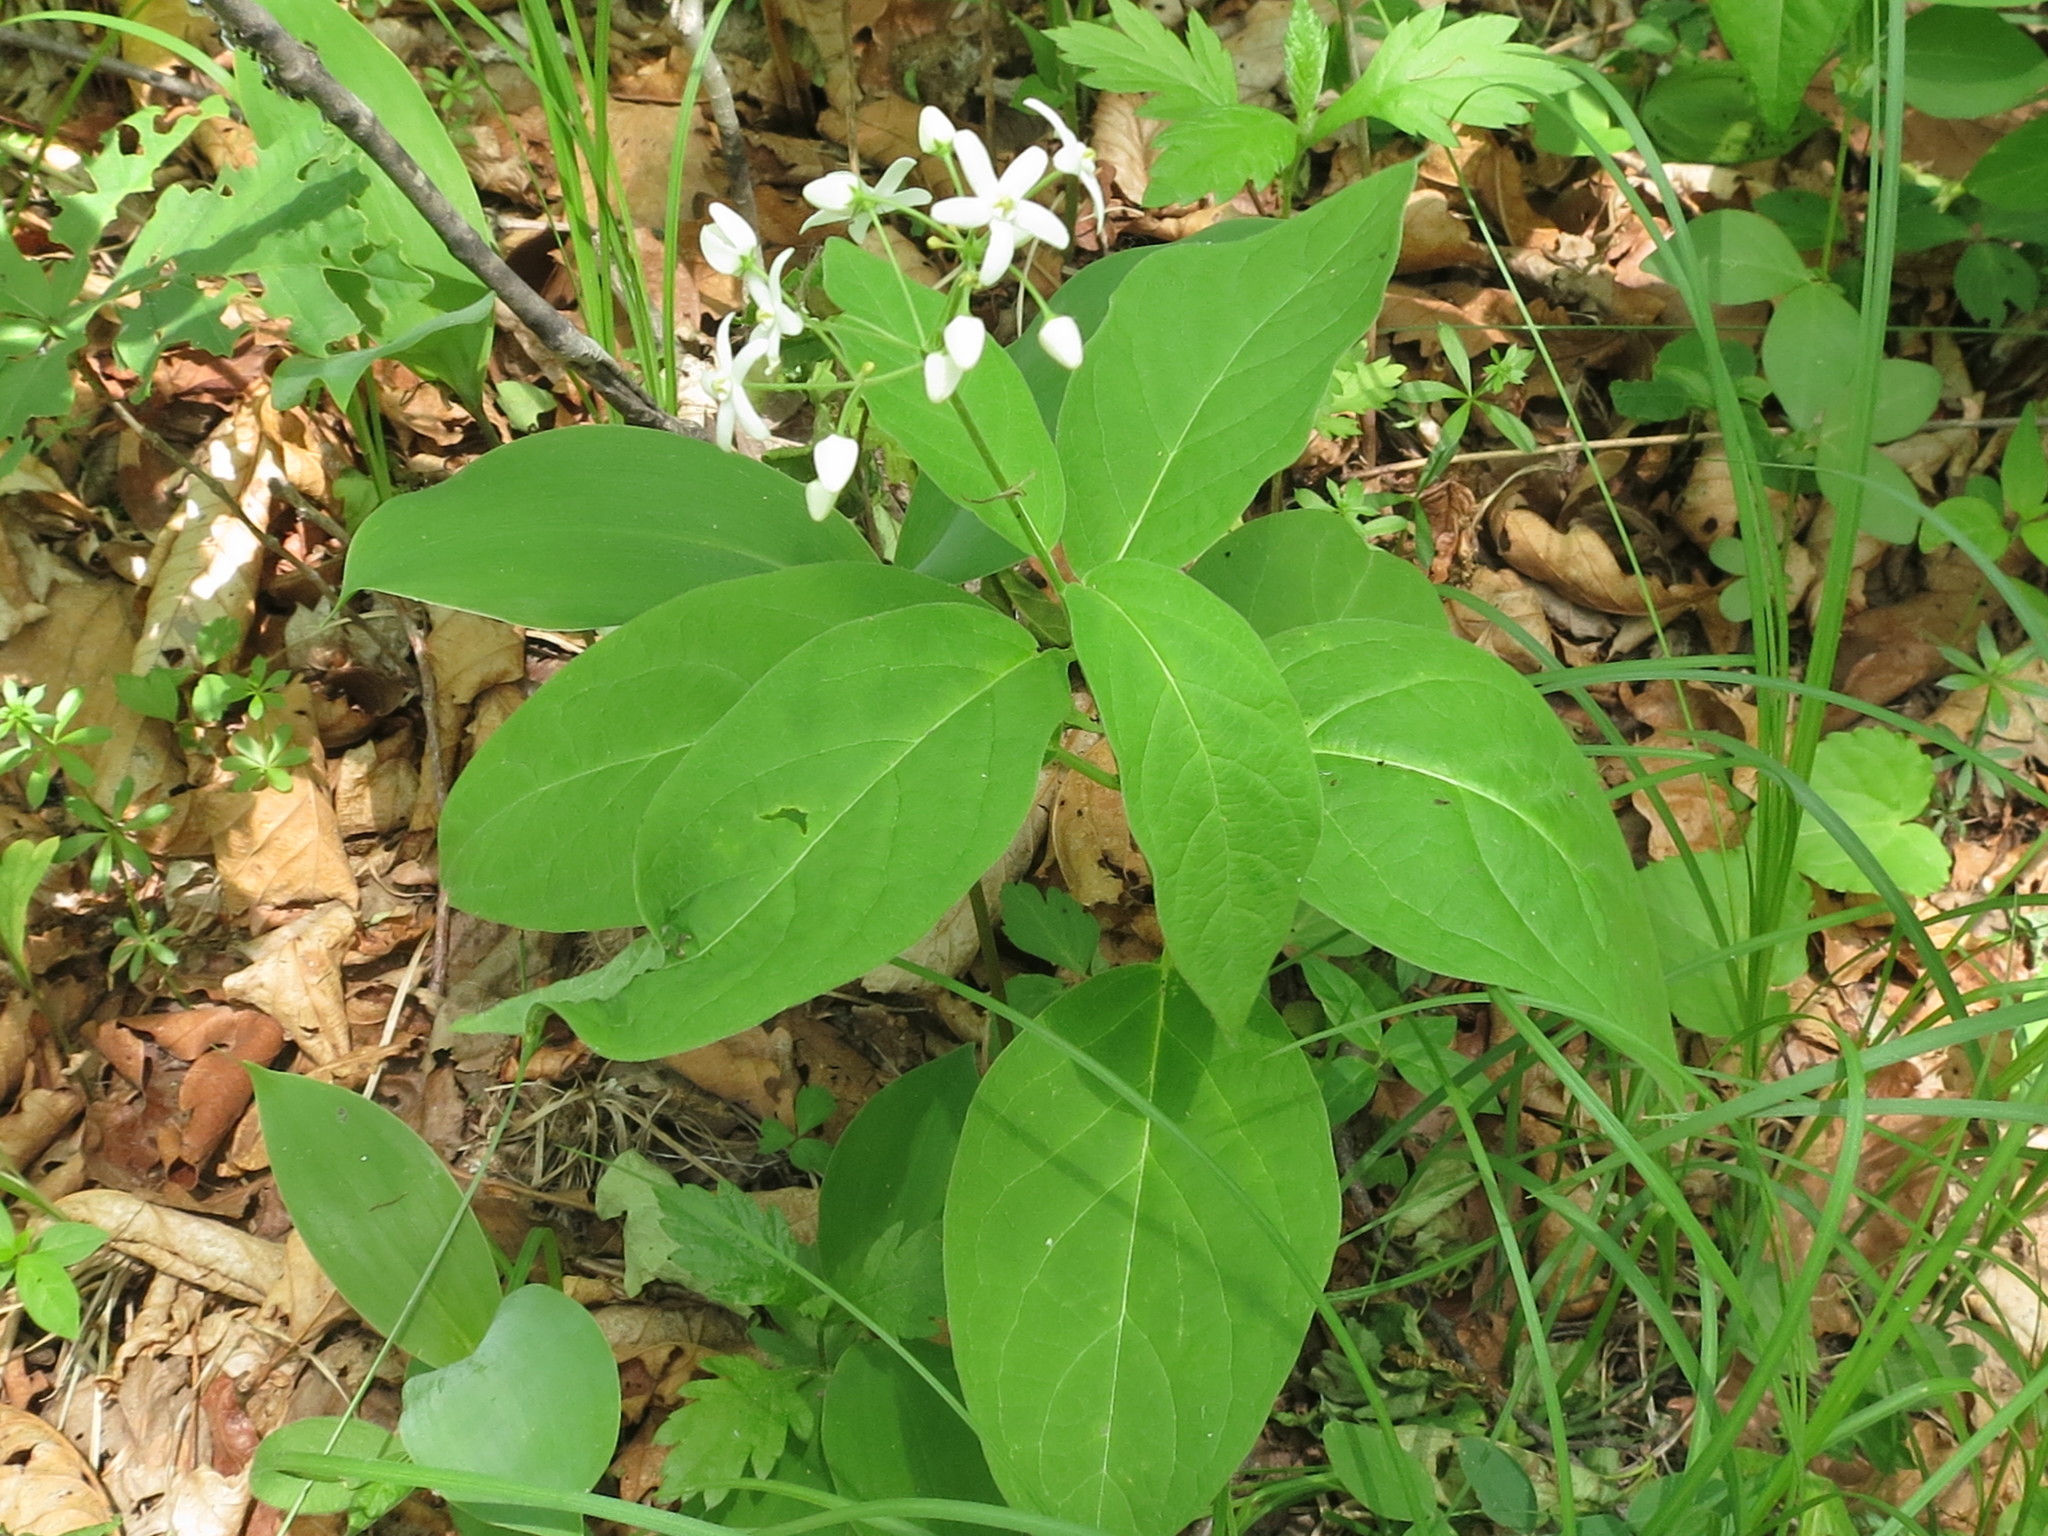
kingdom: Plantae
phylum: Tracheophyta
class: Magnoliopsida
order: Gentianales
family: Apocynaceae
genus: Vincetoxicum
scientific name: Vincetoxicum ascyrifolium
